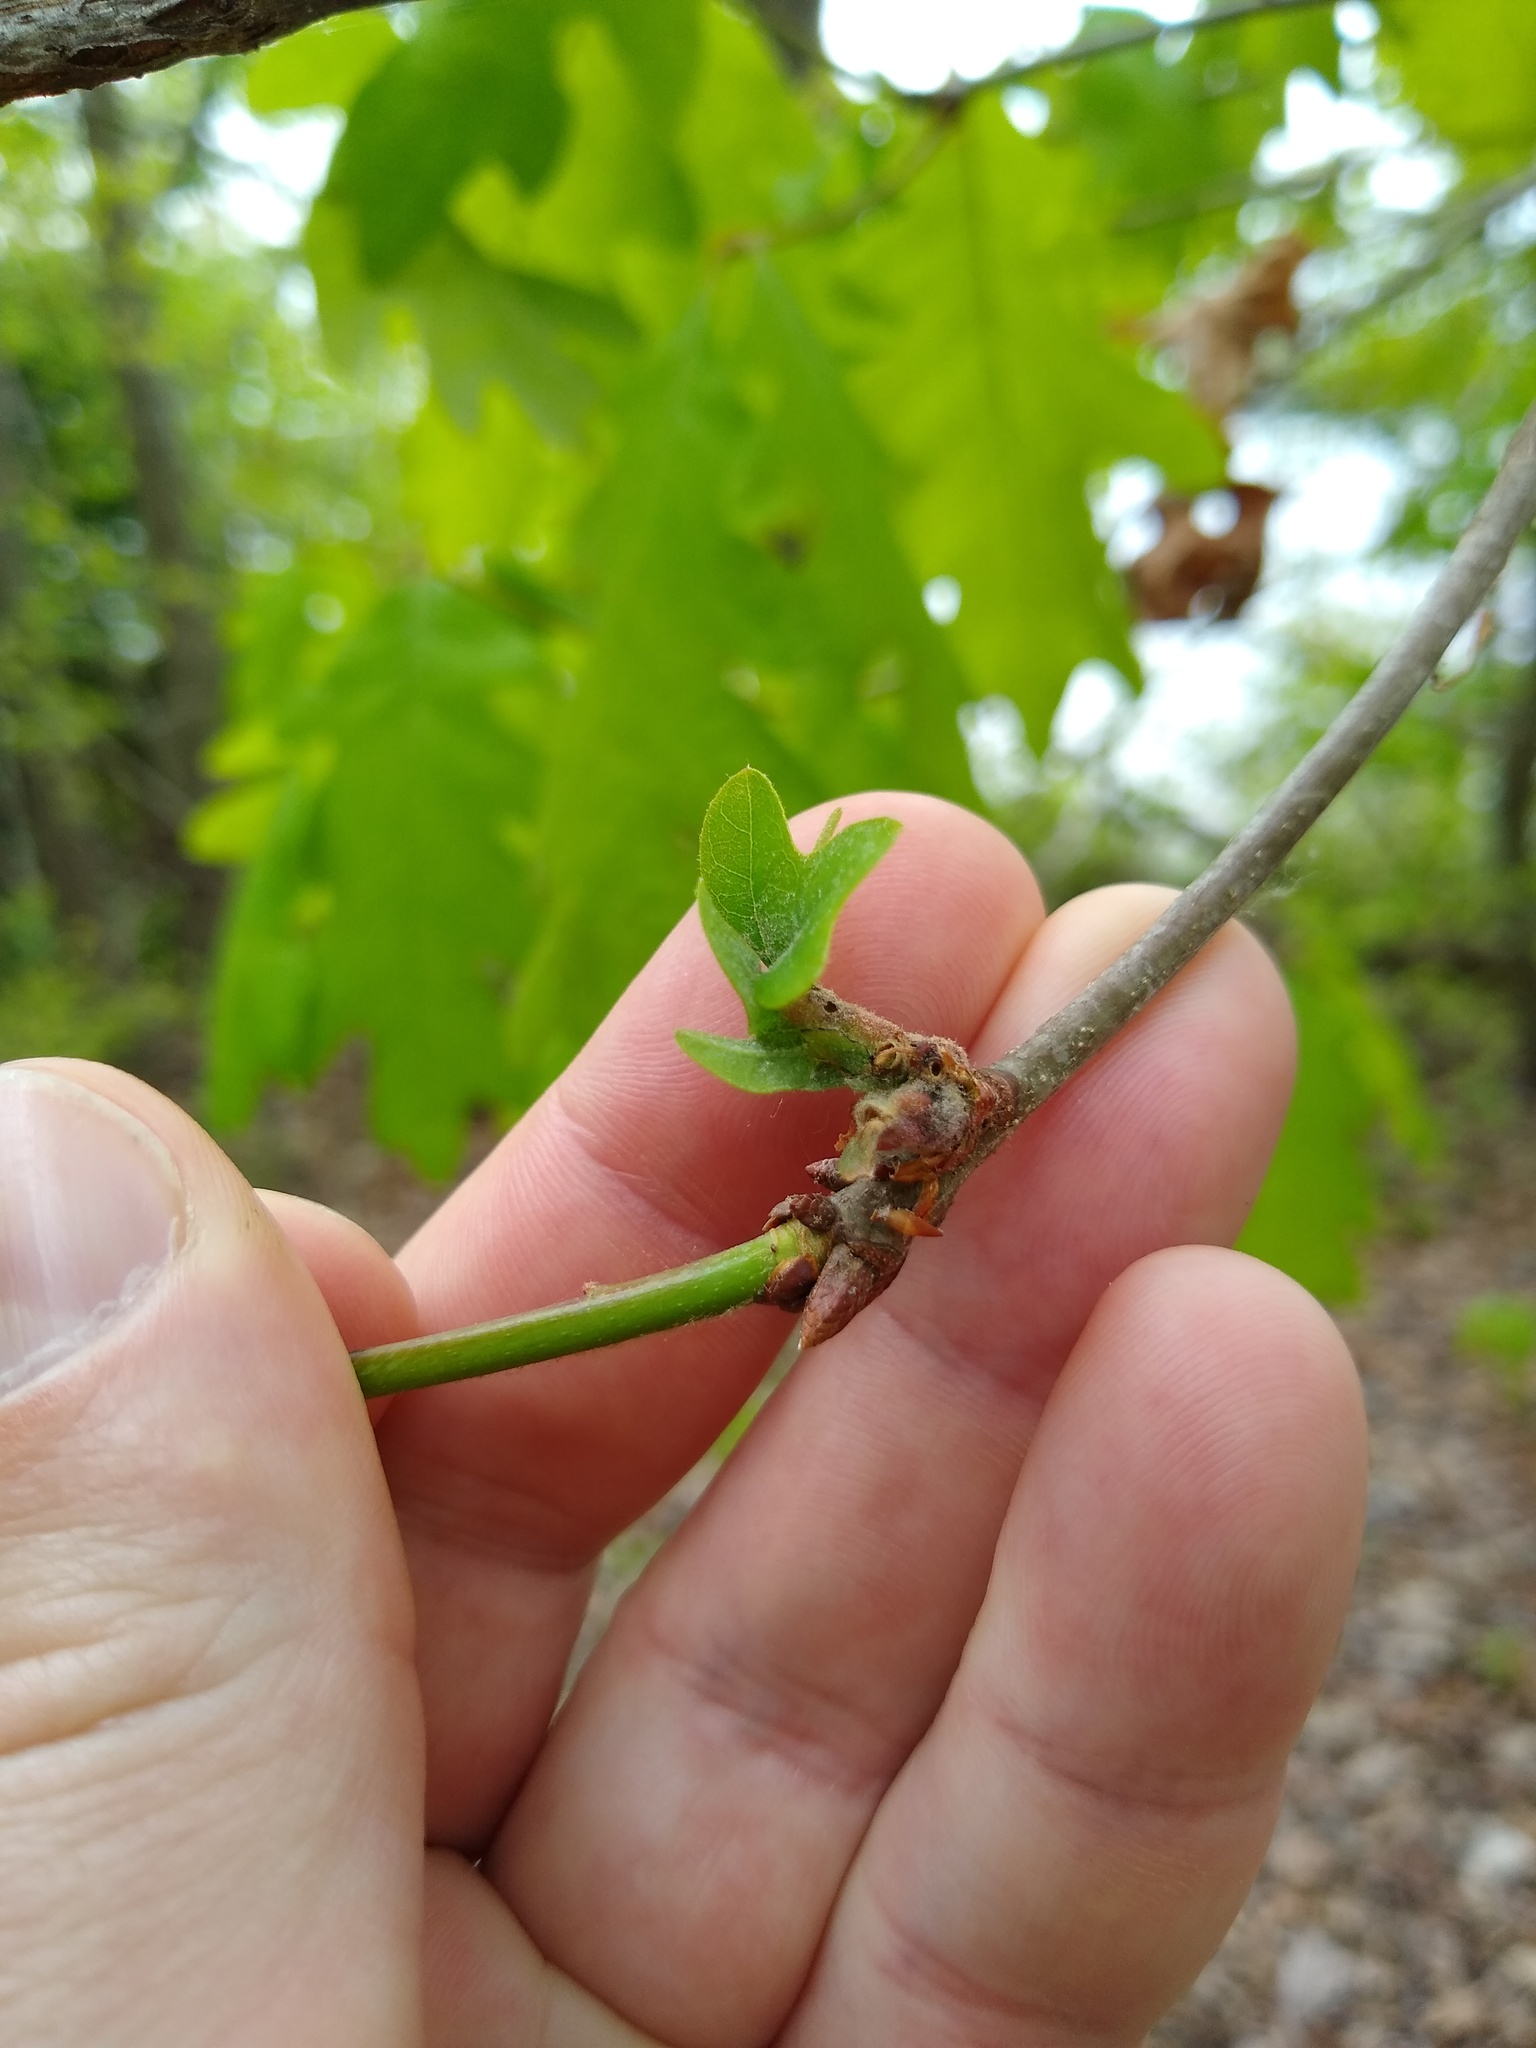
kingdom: Animalia
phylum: Arthropoda
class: Insecta
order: Hymenoptera
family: Cynipidae
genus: Neuroterus
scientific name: Neuroterus niger
